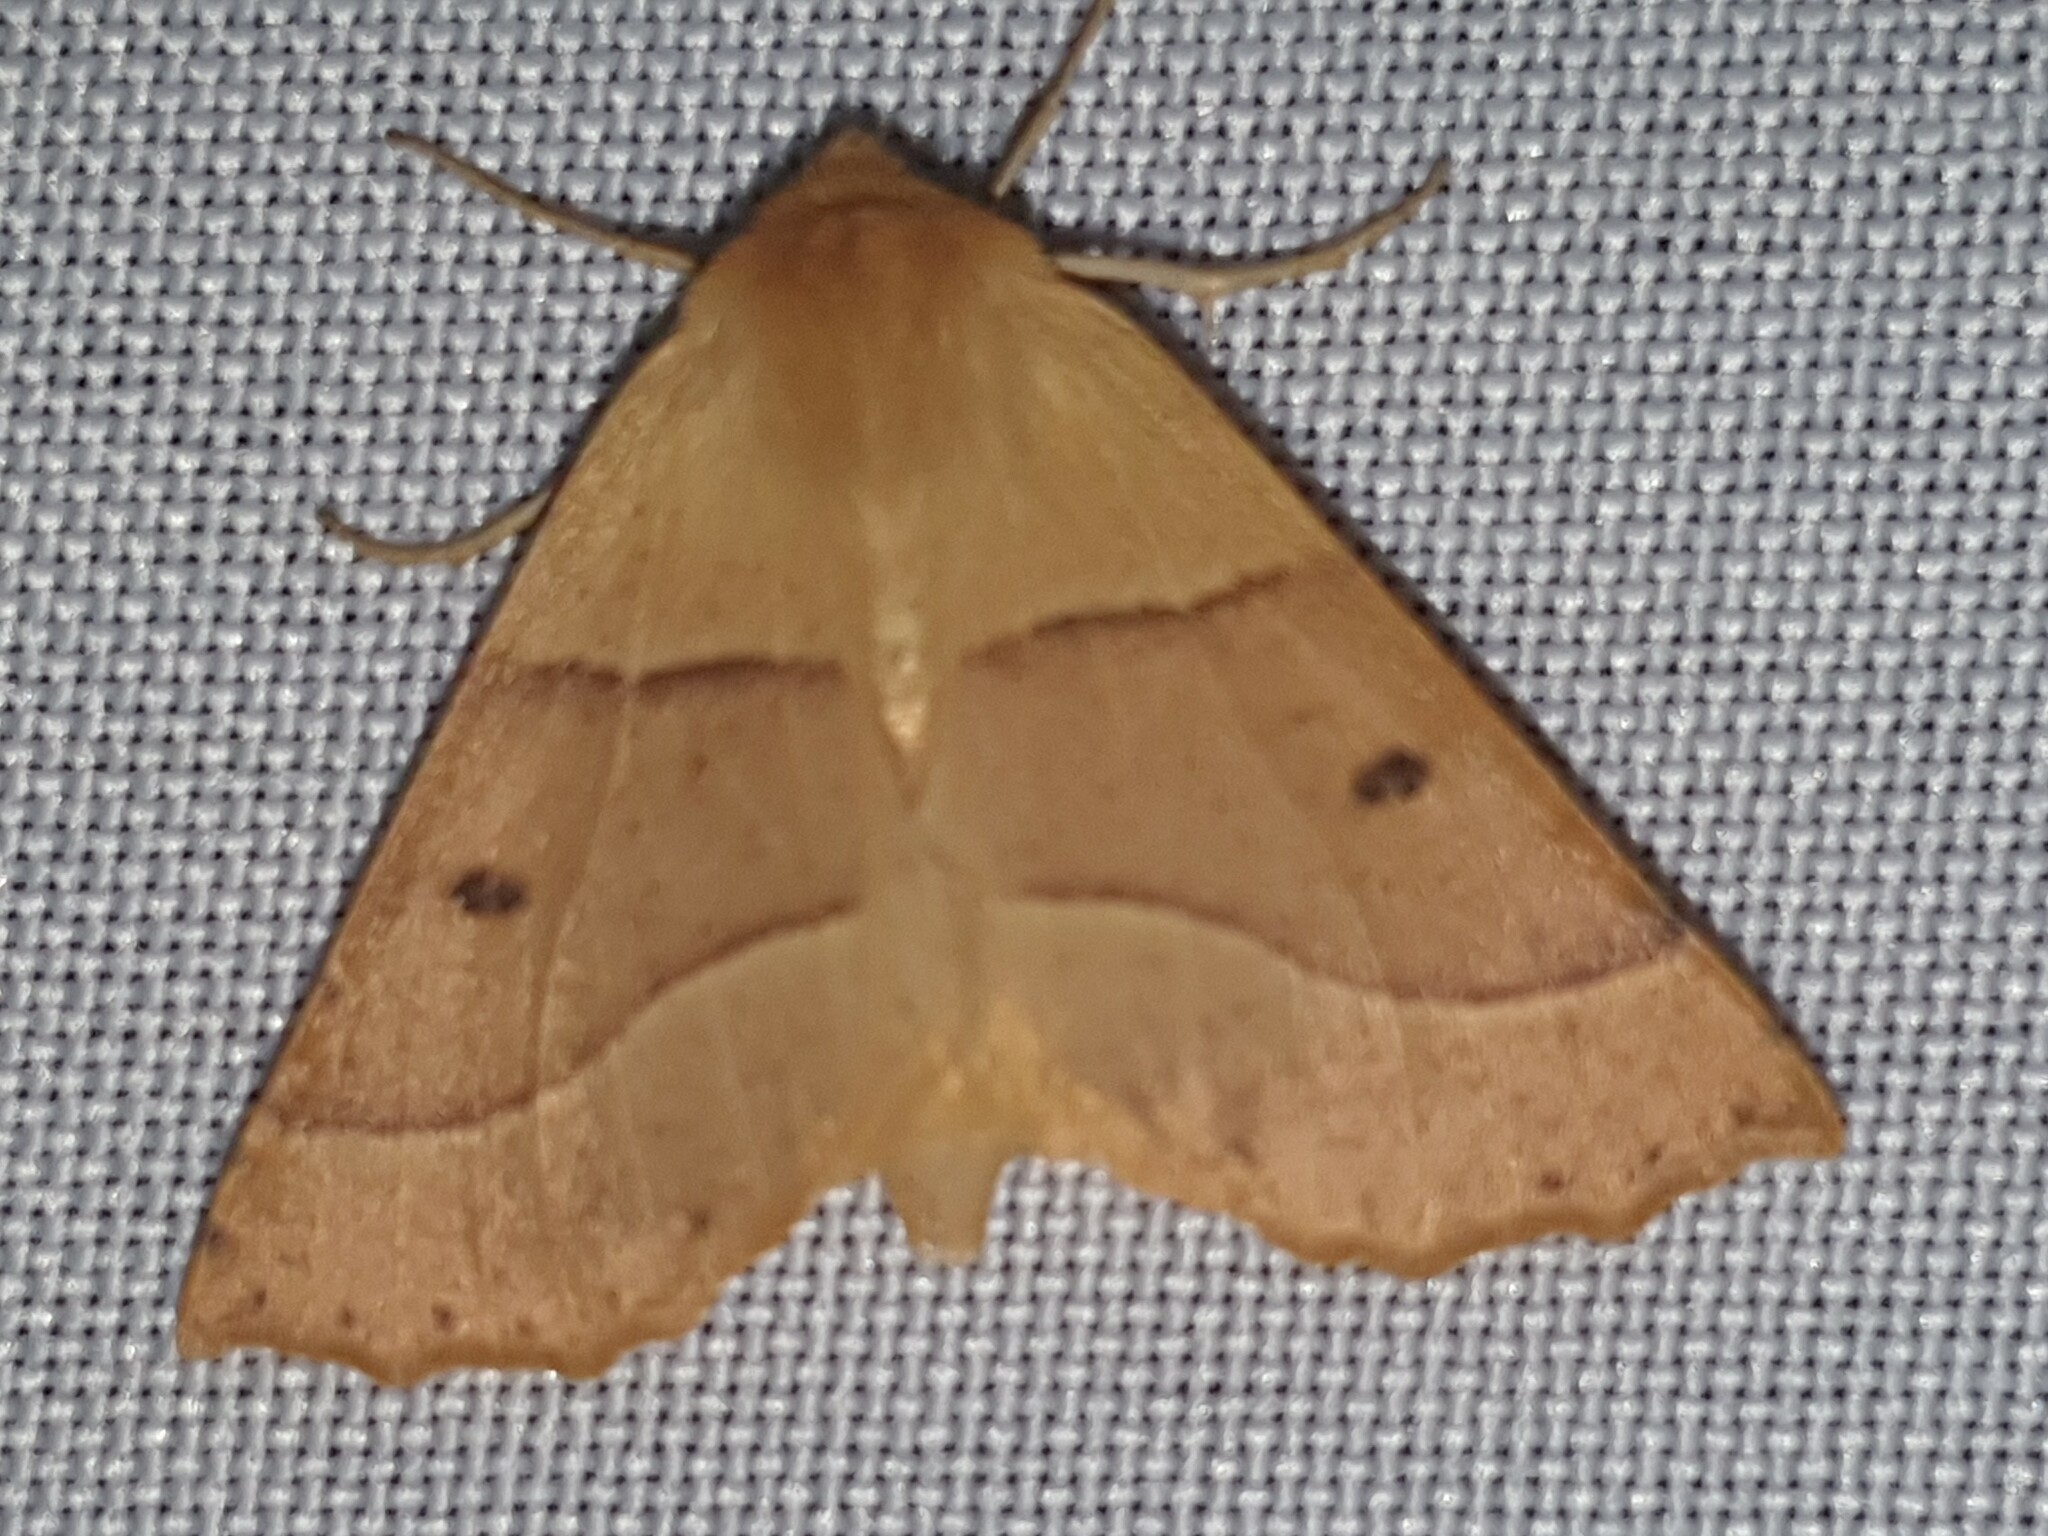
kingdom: Animalia
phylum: Arthropoda
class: Insecta
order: Lepidoptera
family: Geometridae
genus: Crocallis
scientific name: Crocallis elinguaria
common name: Scalloped oak
